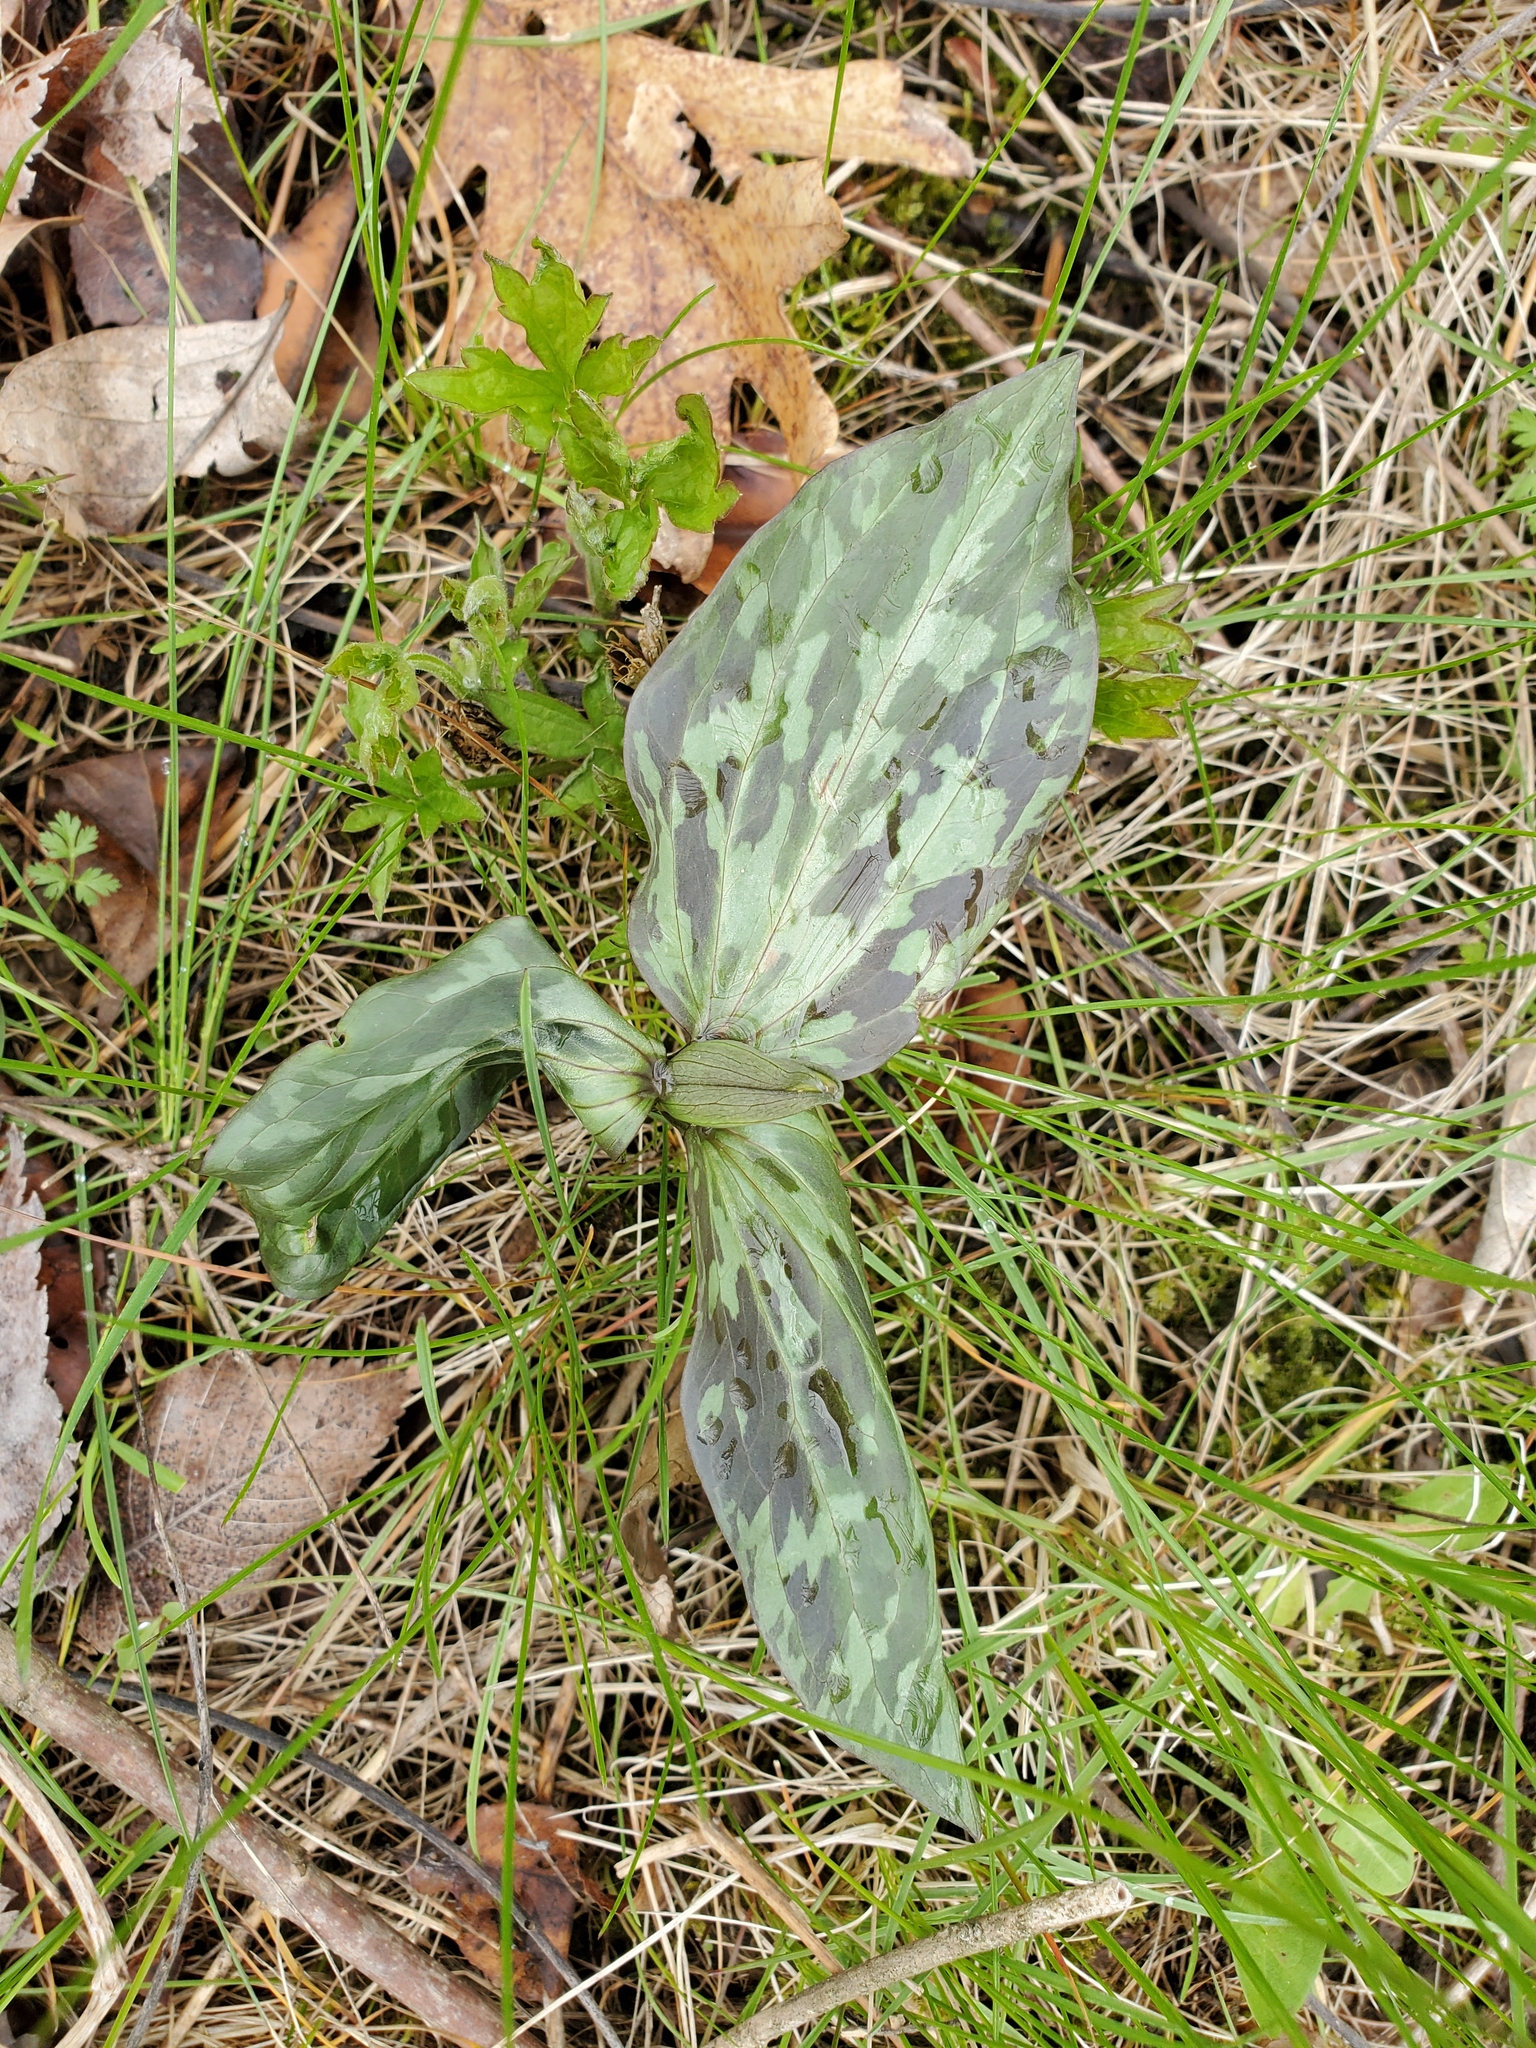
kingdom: Plantae
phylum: Tracheophyta
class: Liliopsida
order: Liliales
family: Melanthiaceae
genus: Trillium
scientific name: Trillium recurvatum
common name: Bloody butcher
